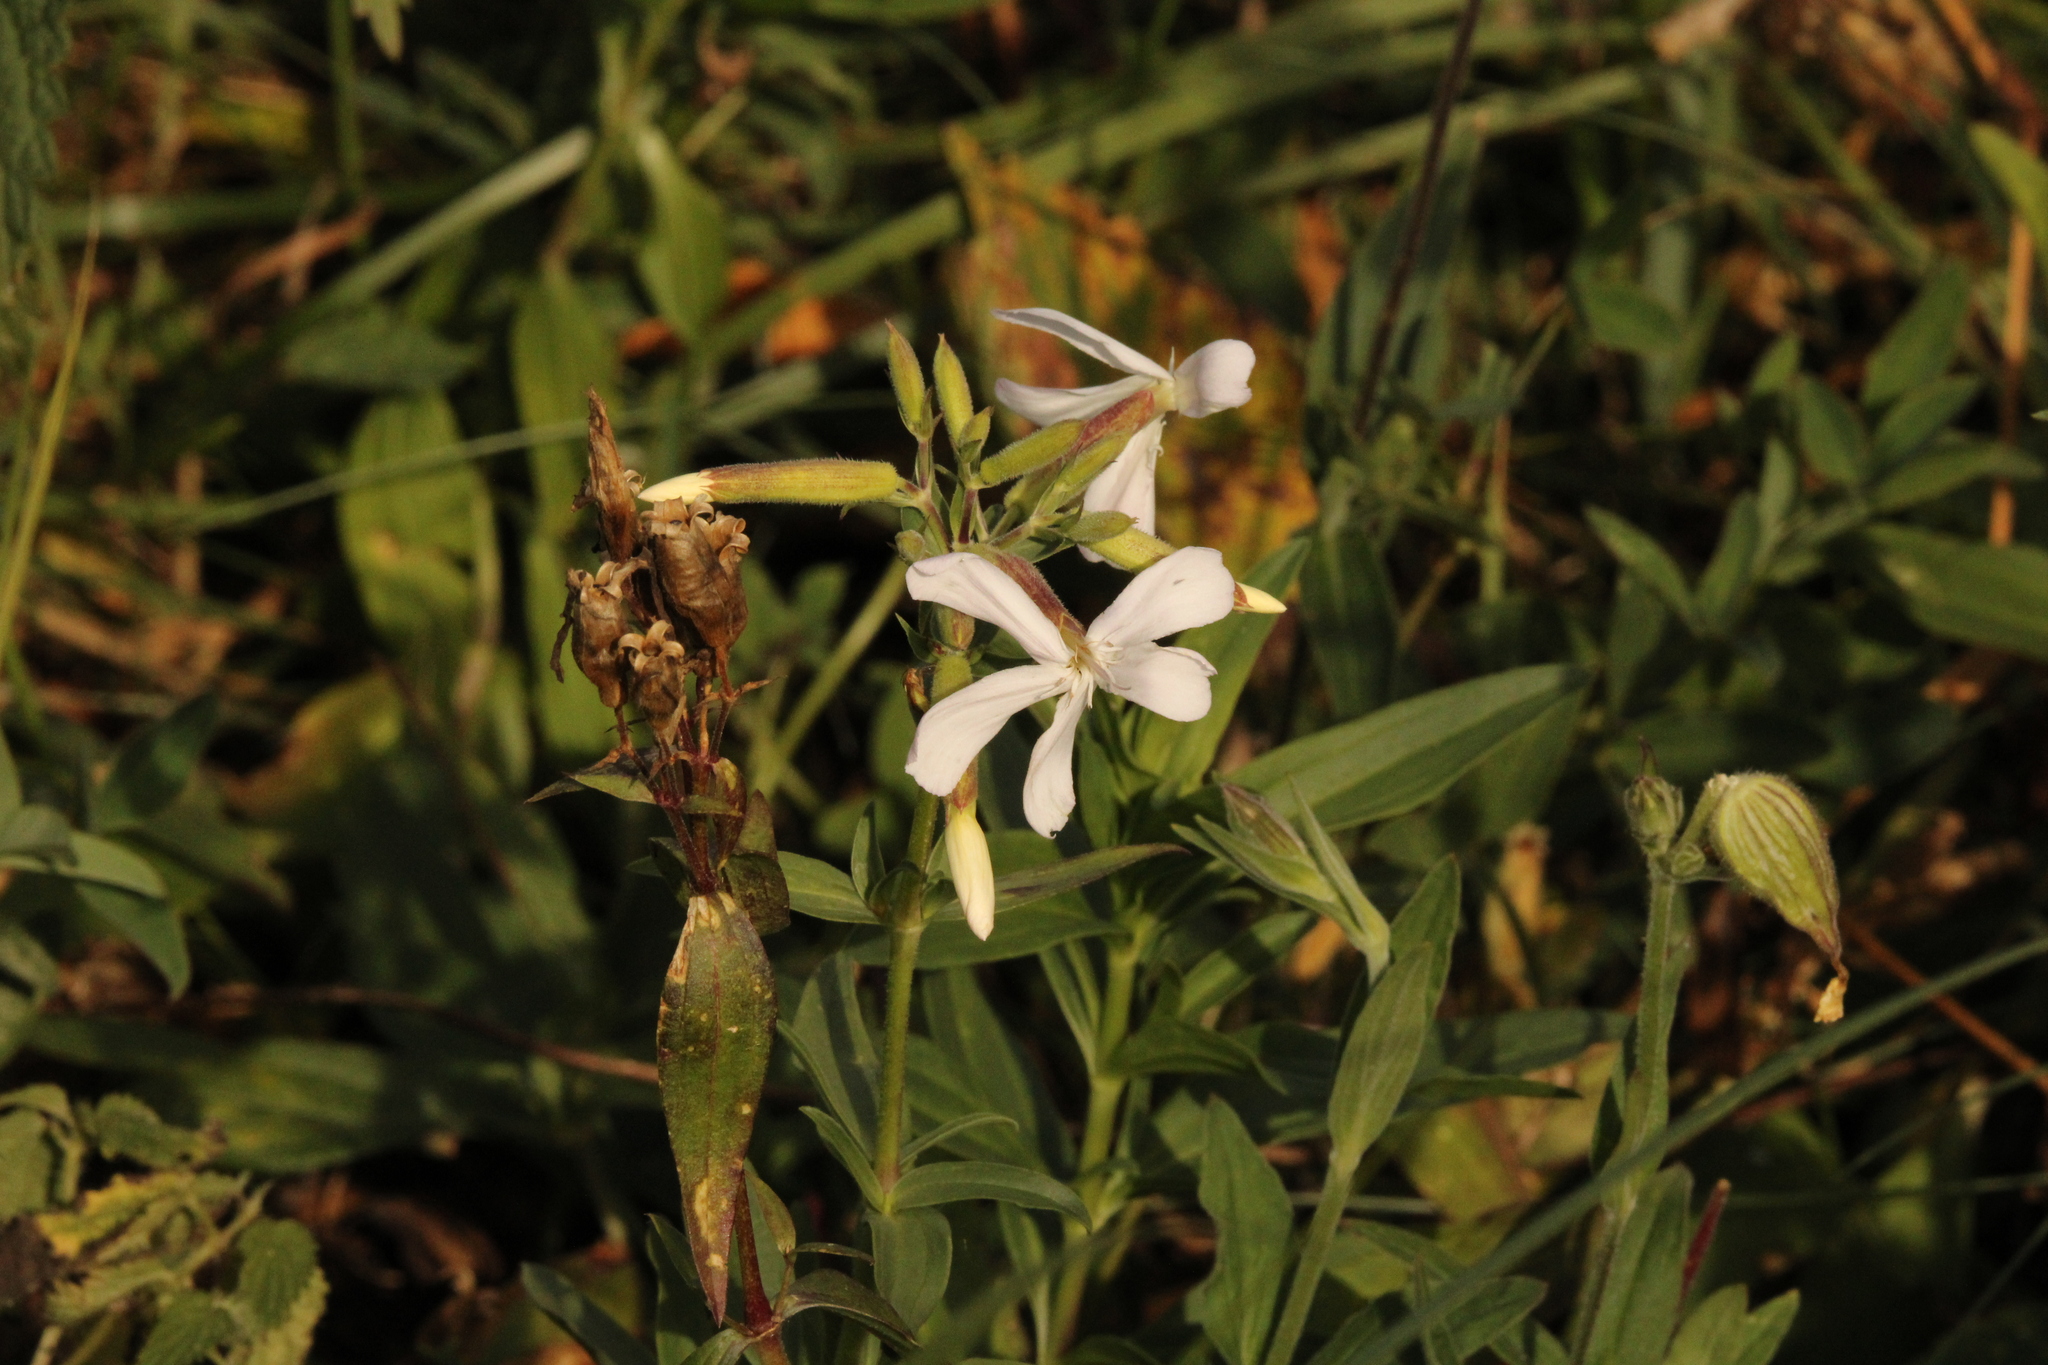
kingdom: Plantae
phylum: Tracheophyta
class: Magnoliopsida
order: Caryophyllales
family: Caryophyllaceae
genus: Saponaria
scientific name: Saponaria officinalis
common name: Soapwort
